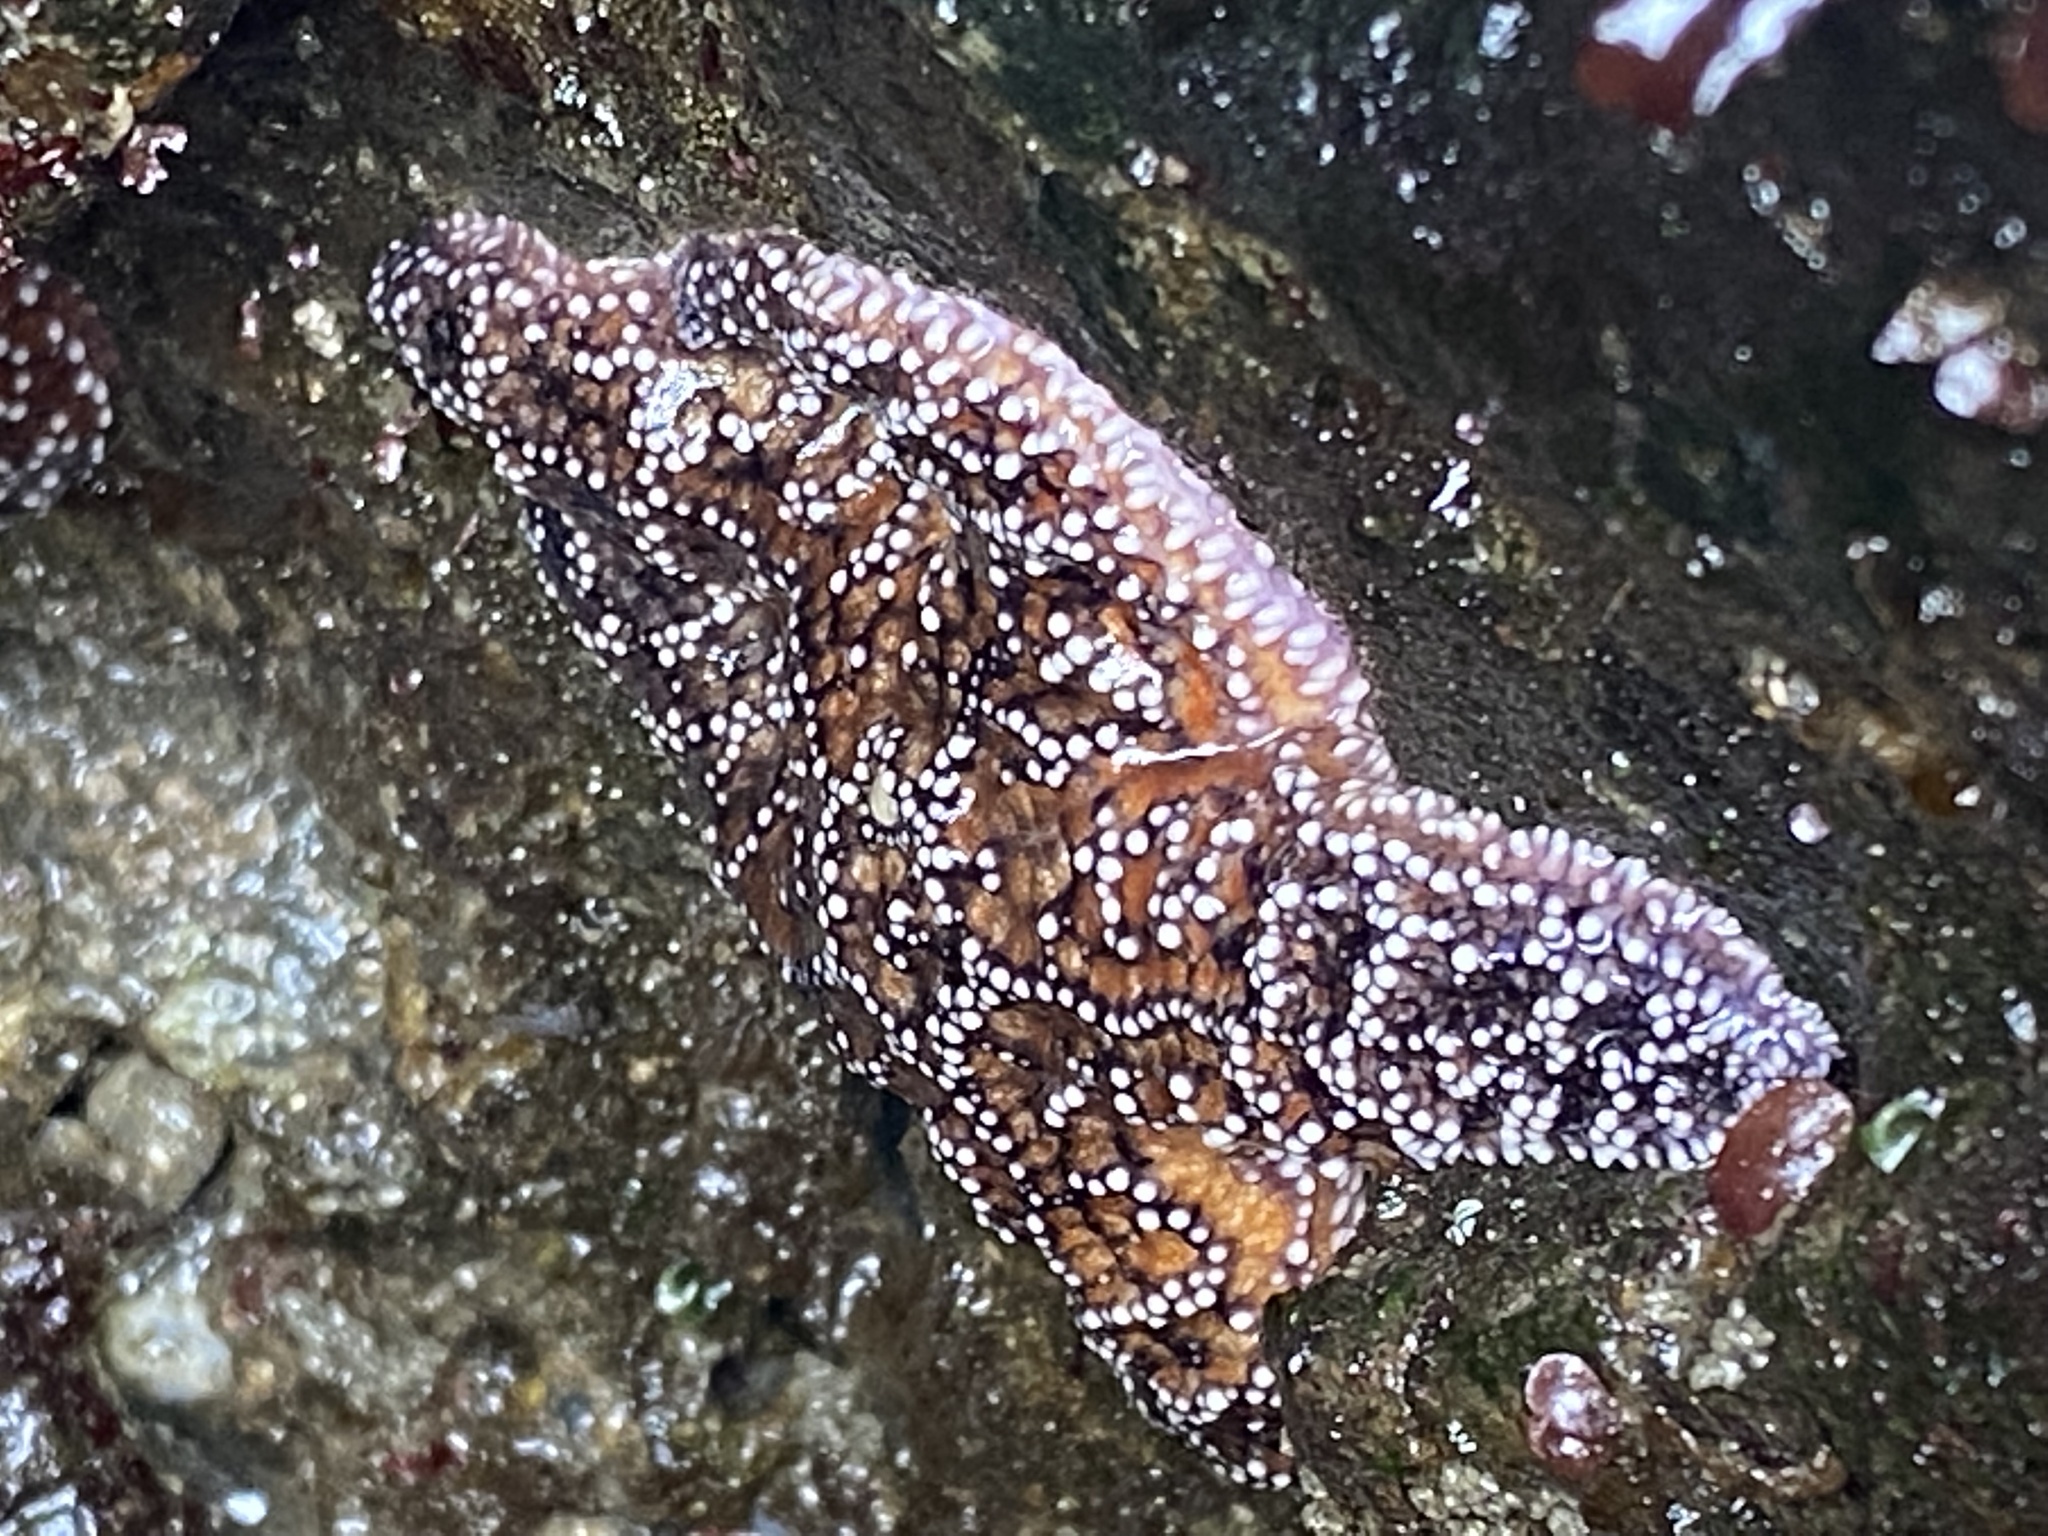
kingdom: Animalia
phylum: Echinodermata
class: Asteroidea
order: Forcipulatida
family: Asteriidae
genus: Pisaster
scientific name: Pisaster ochraceus
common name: Ochre stars
